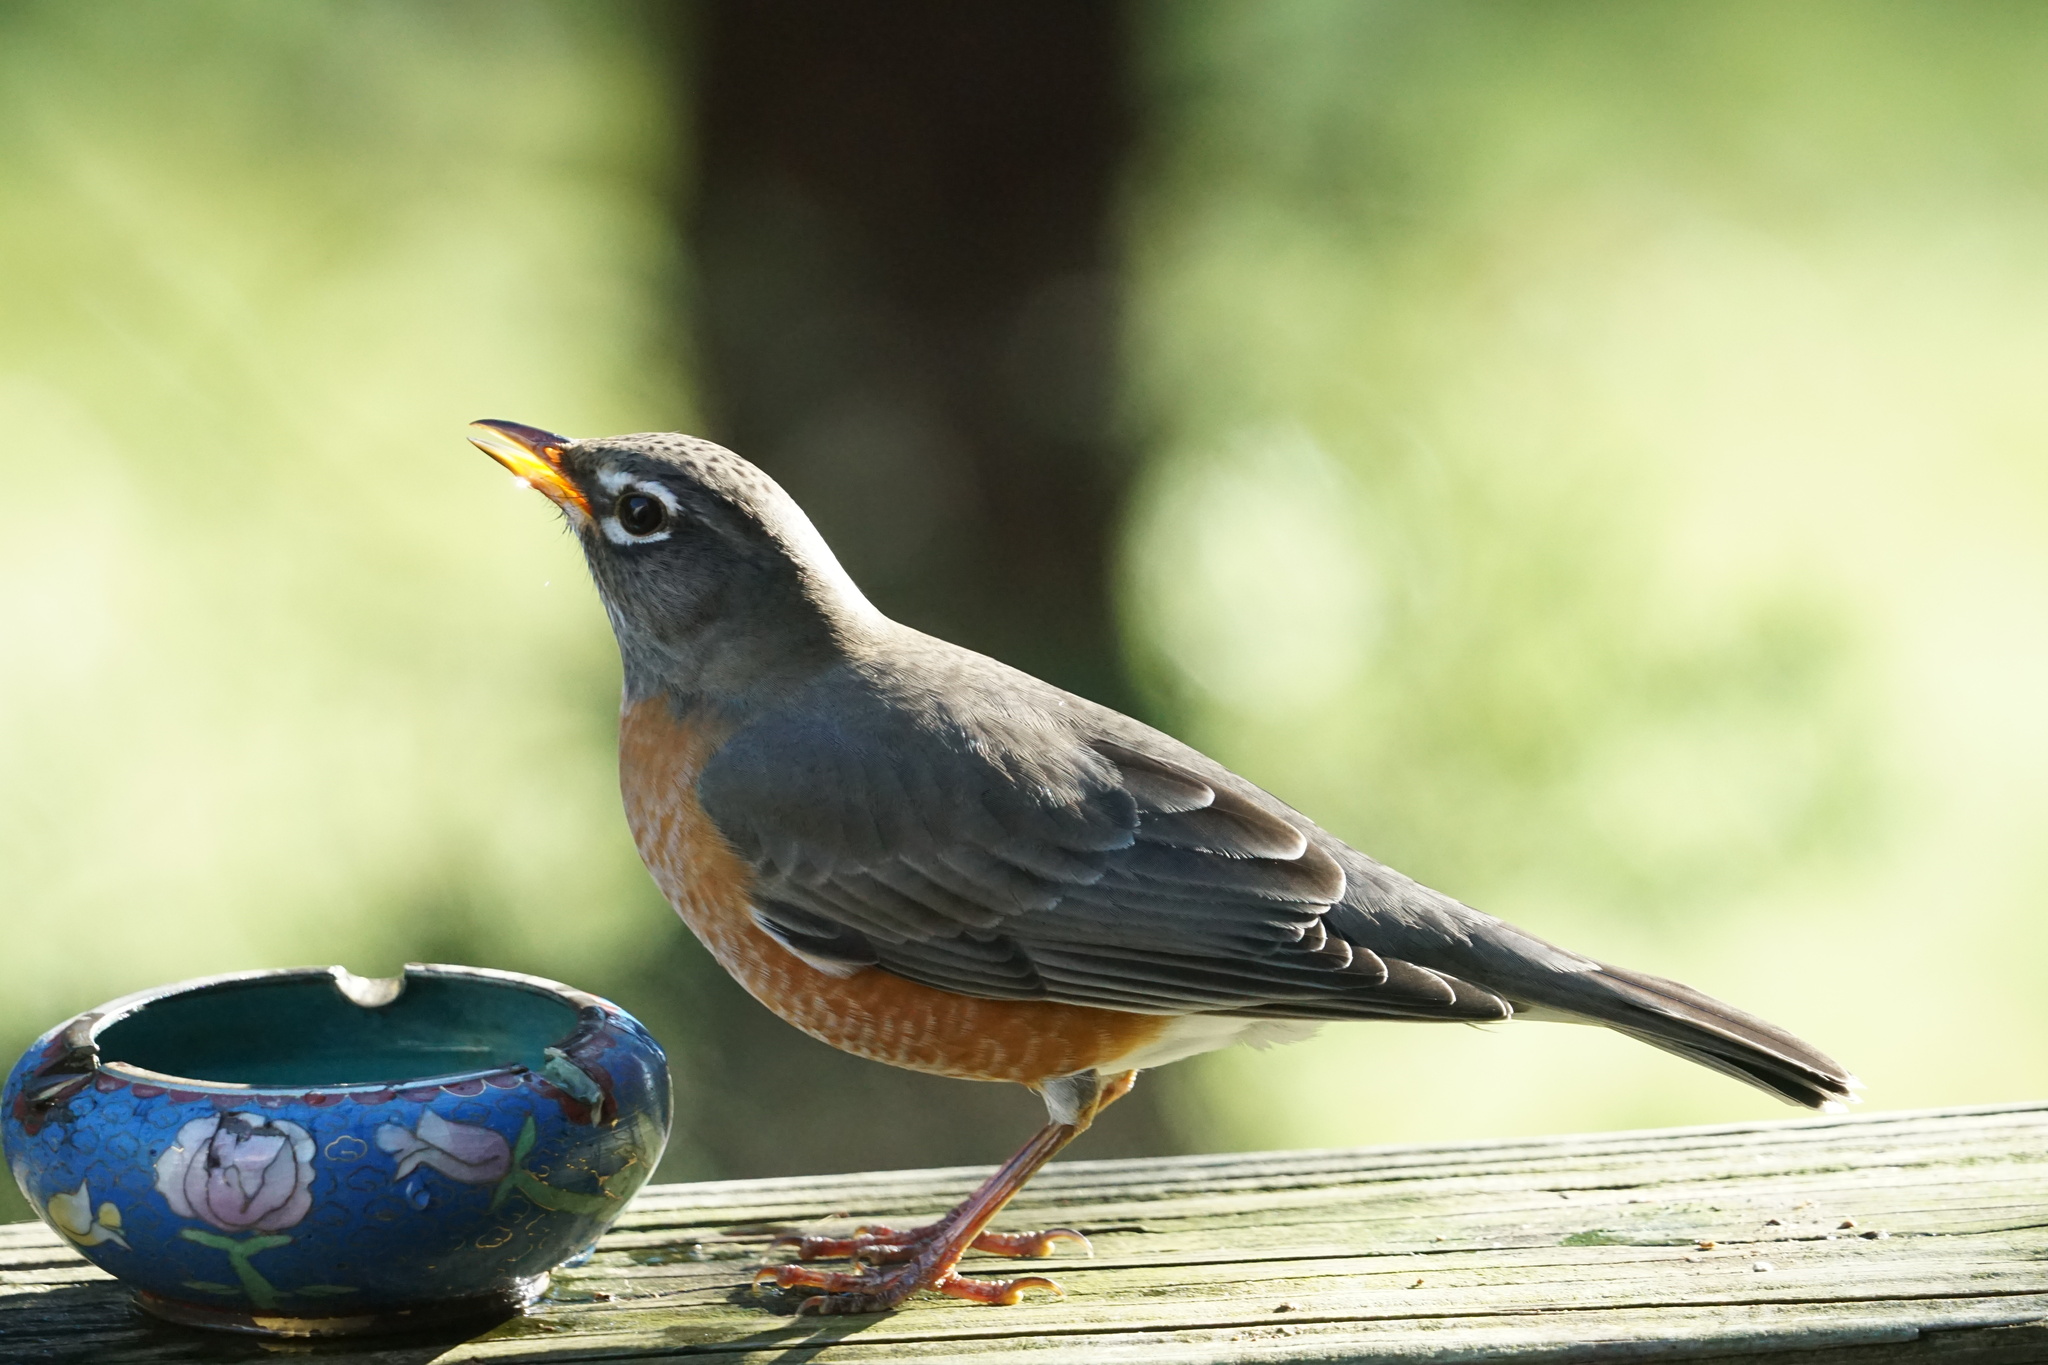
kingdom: Animalia
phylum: Chordata
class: Aves
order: Passeriformes
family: Turdidae
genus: Turdus
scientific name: Turdus migratorius
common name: American robin
